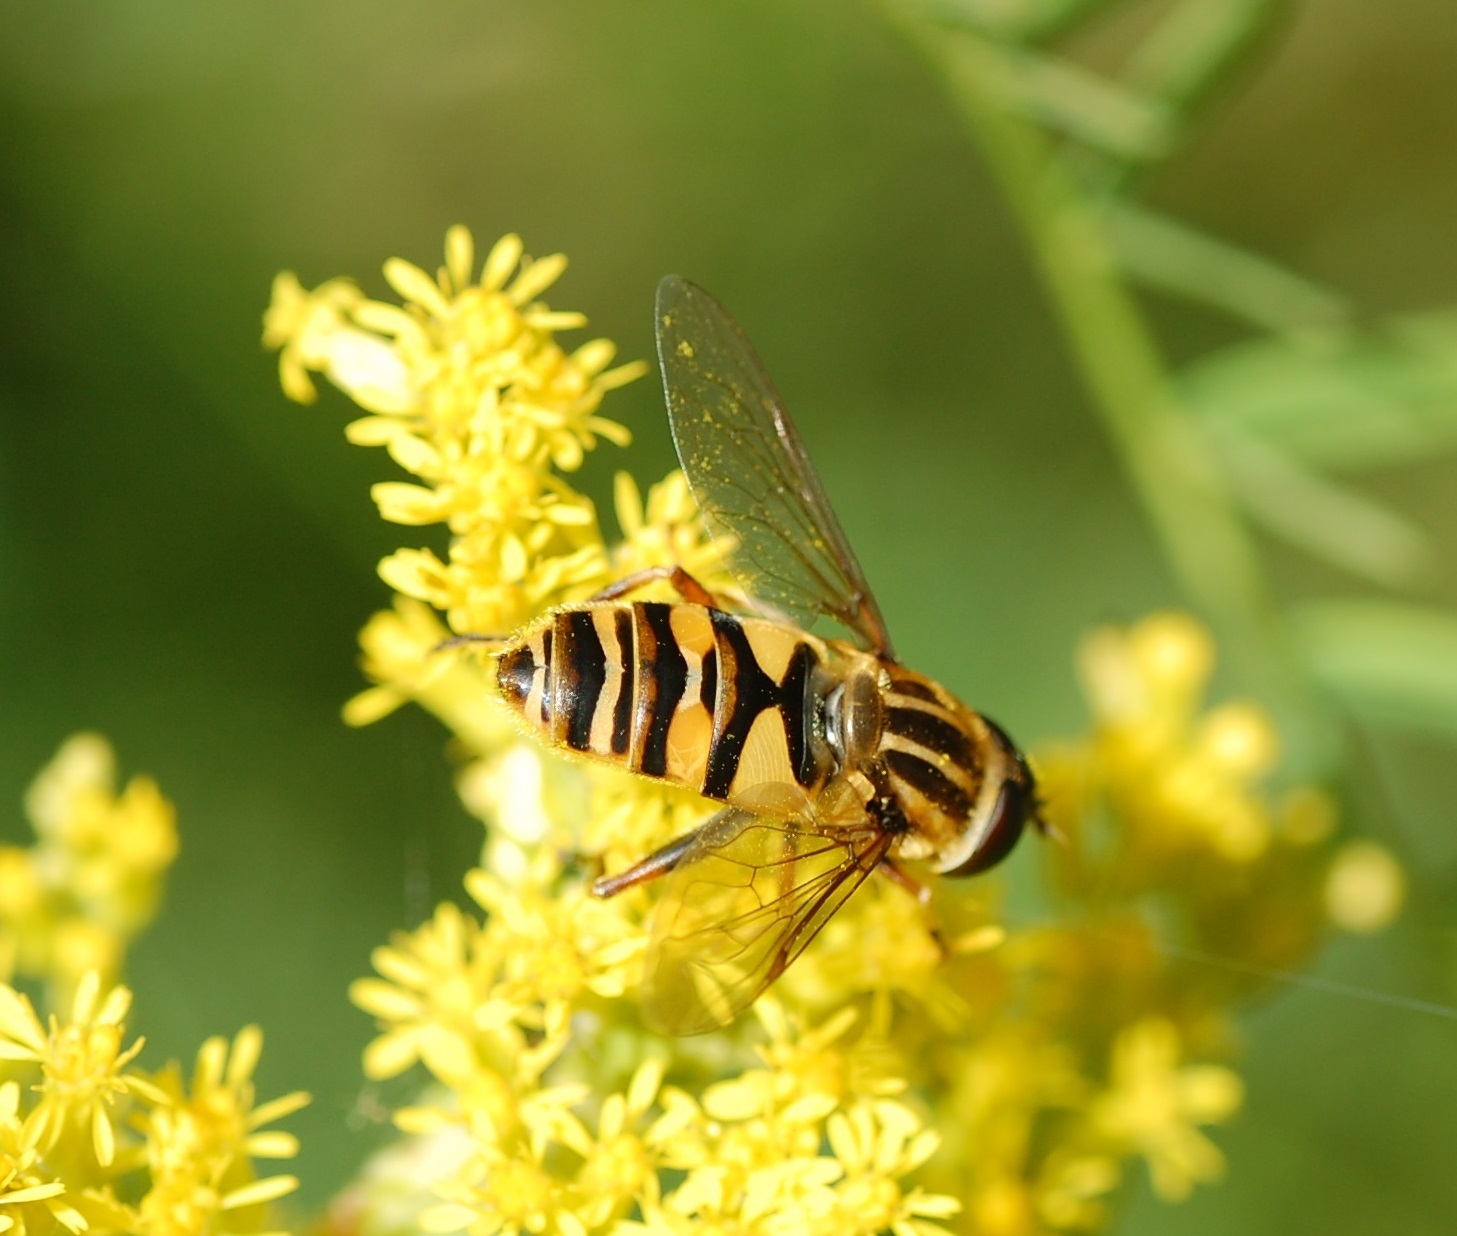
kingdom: Animalia
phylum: Arthropoda
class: Insecta
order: Diptera
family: Syrphidae
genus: Helophilus
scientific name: Helophilus fasciatus
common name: Narrow-headed marsh fly
